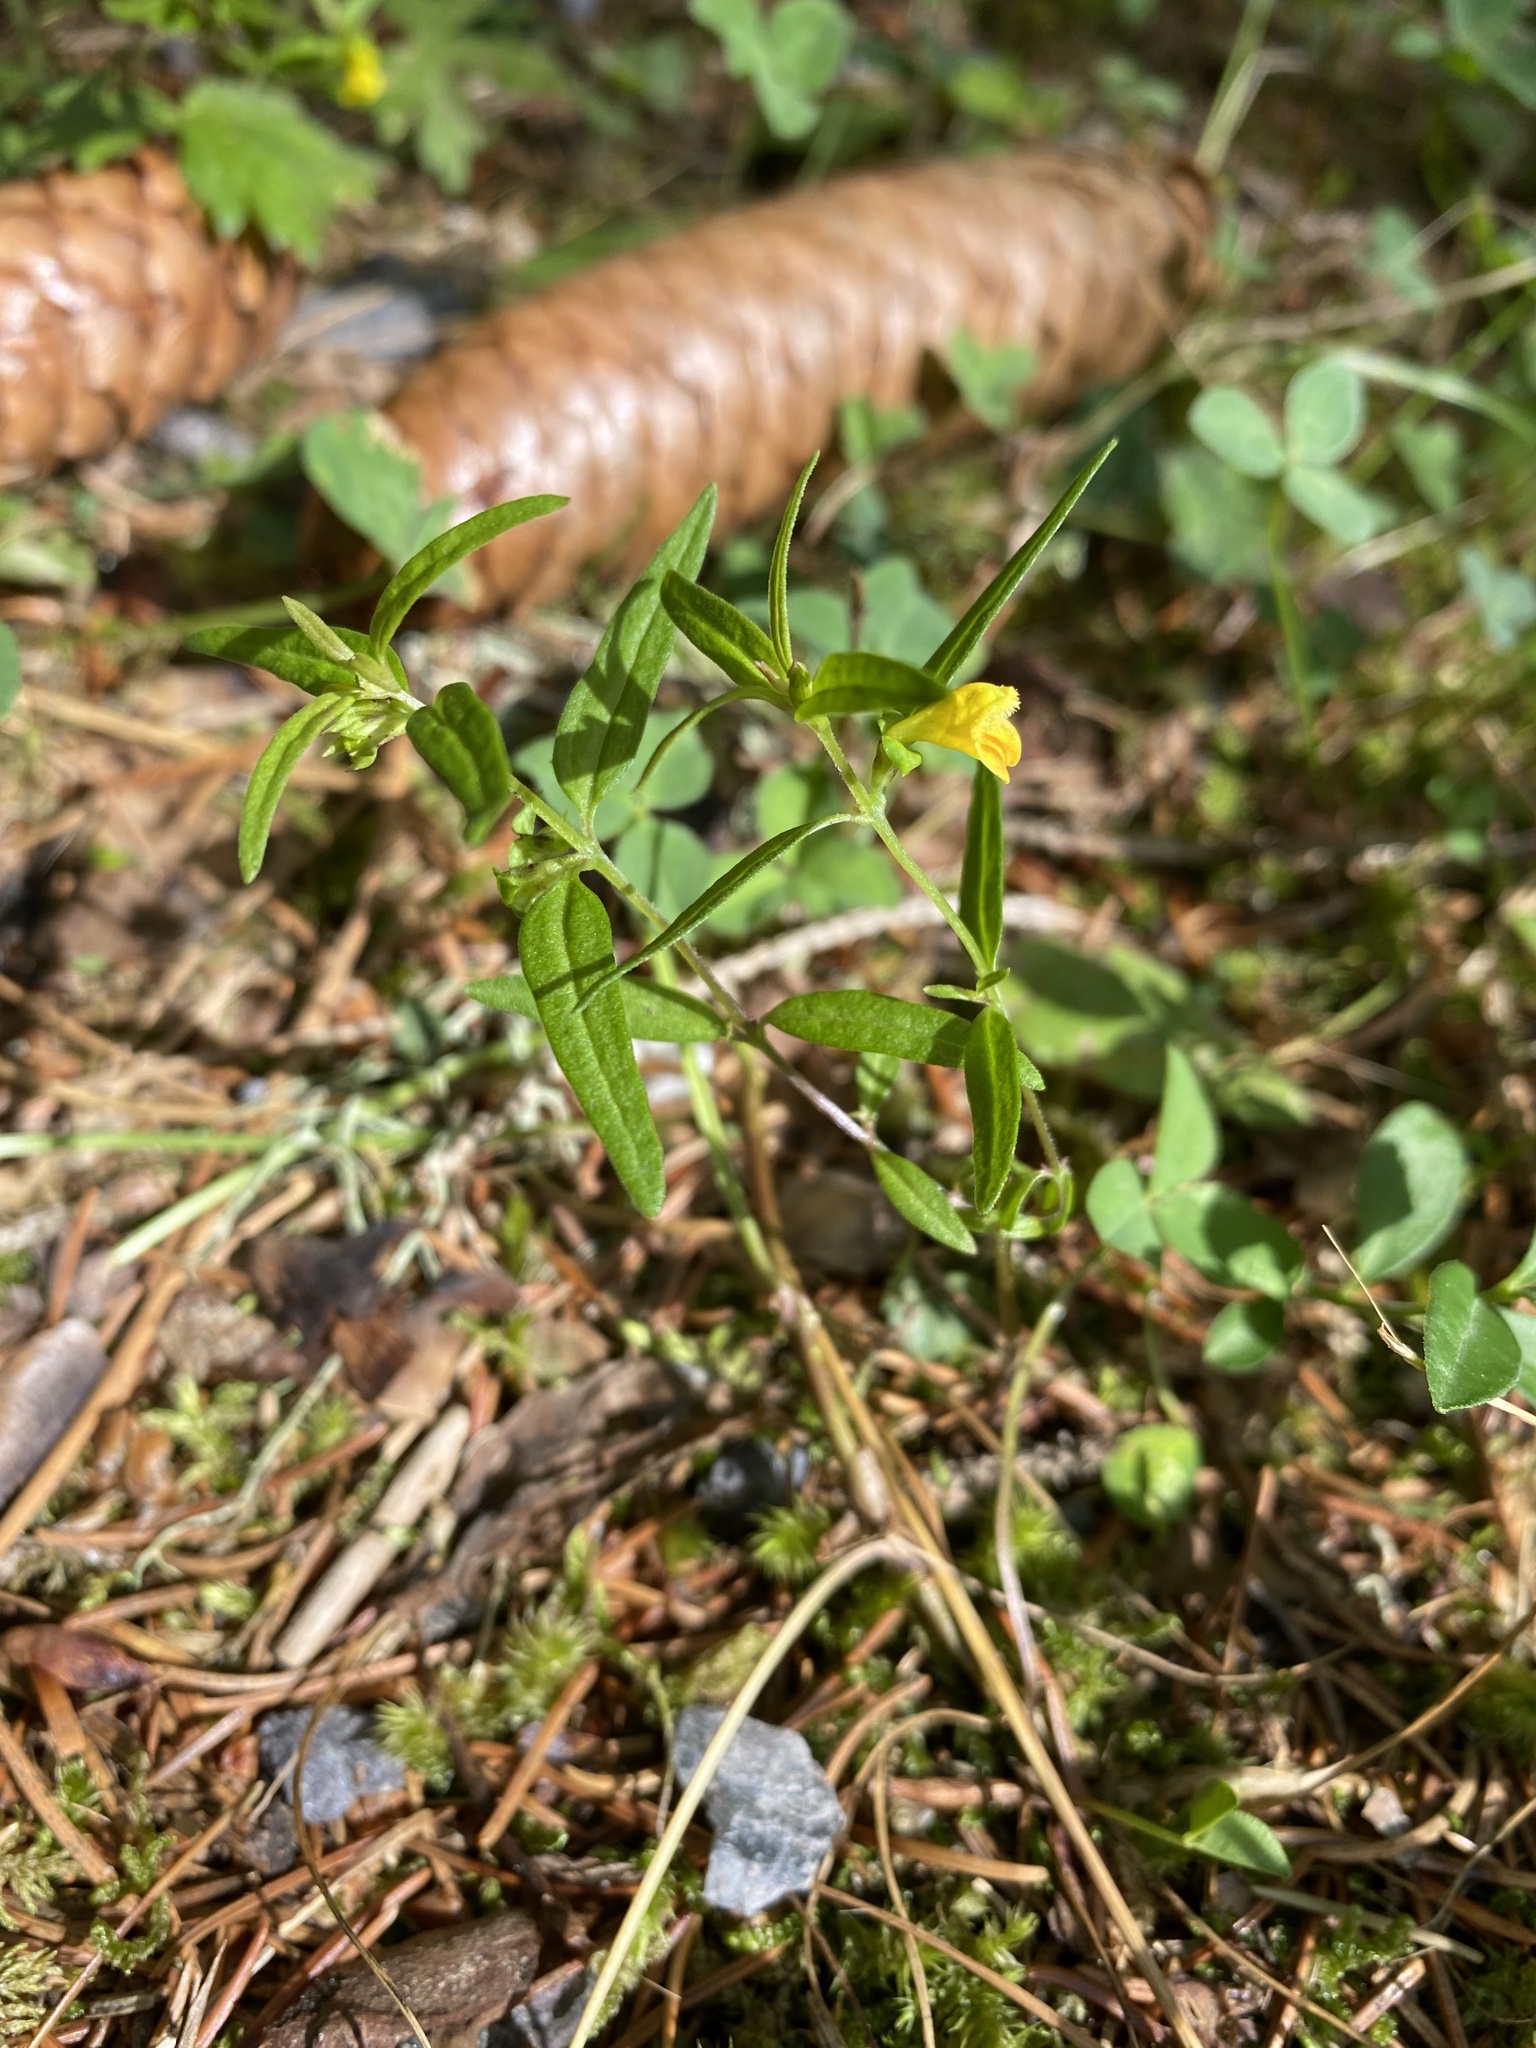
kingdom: Plantae
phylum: Tracheophyta
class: Magnoliopsida
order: Lamiales
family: Orobanchaceae
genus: Melampyrum
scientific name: Melampyrum sylvaticum
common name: Small cow-wheat
